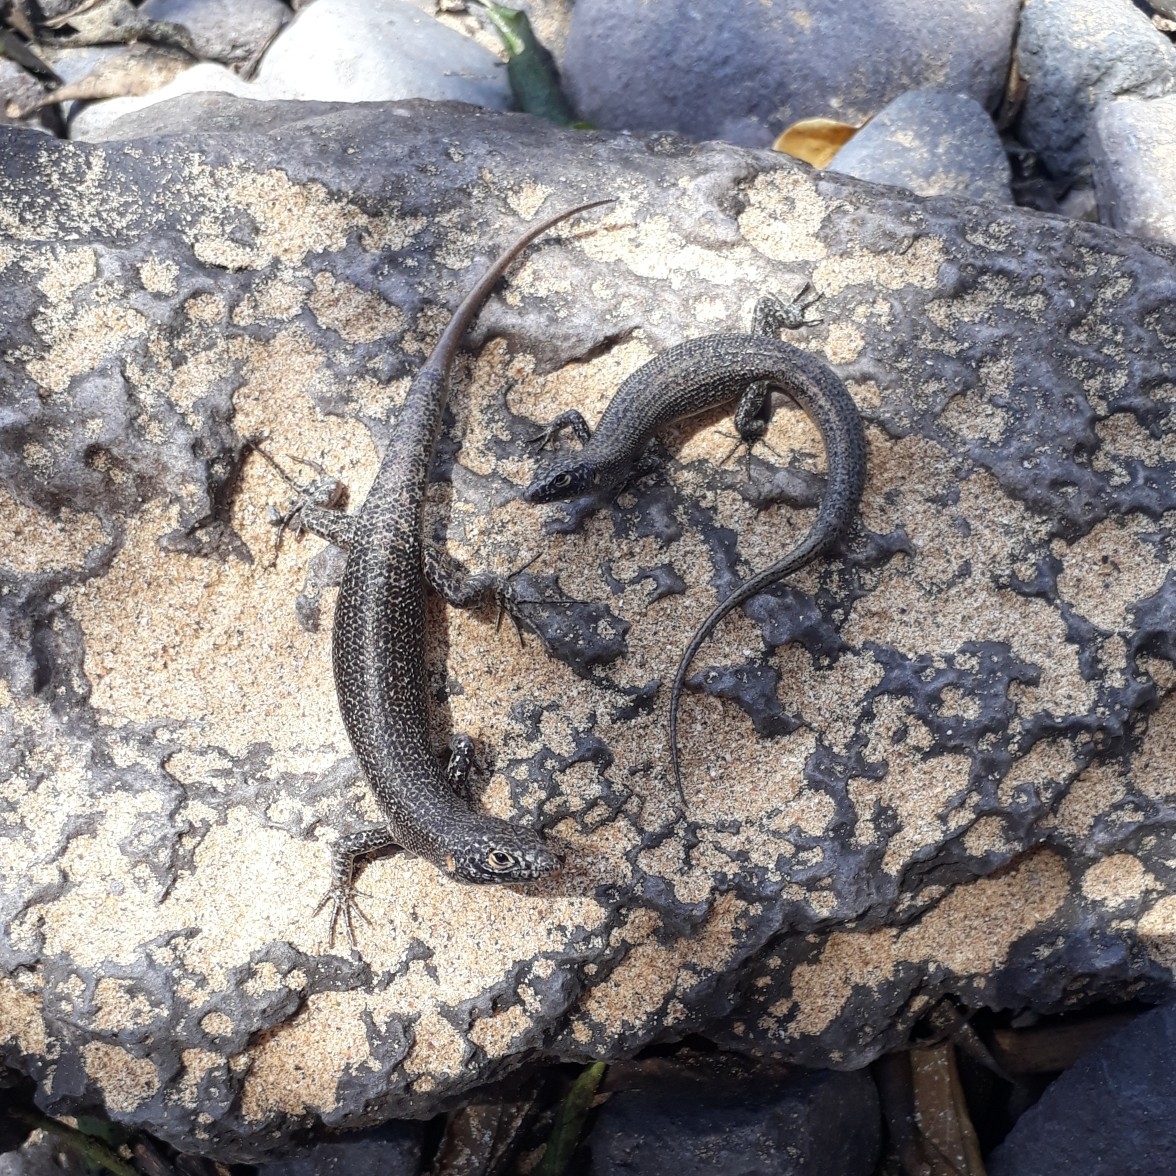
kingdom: Animalia
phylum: Chordata
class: Squamata
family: Scincidae
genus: Trachylepis
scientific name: Trachylepis atlantica
